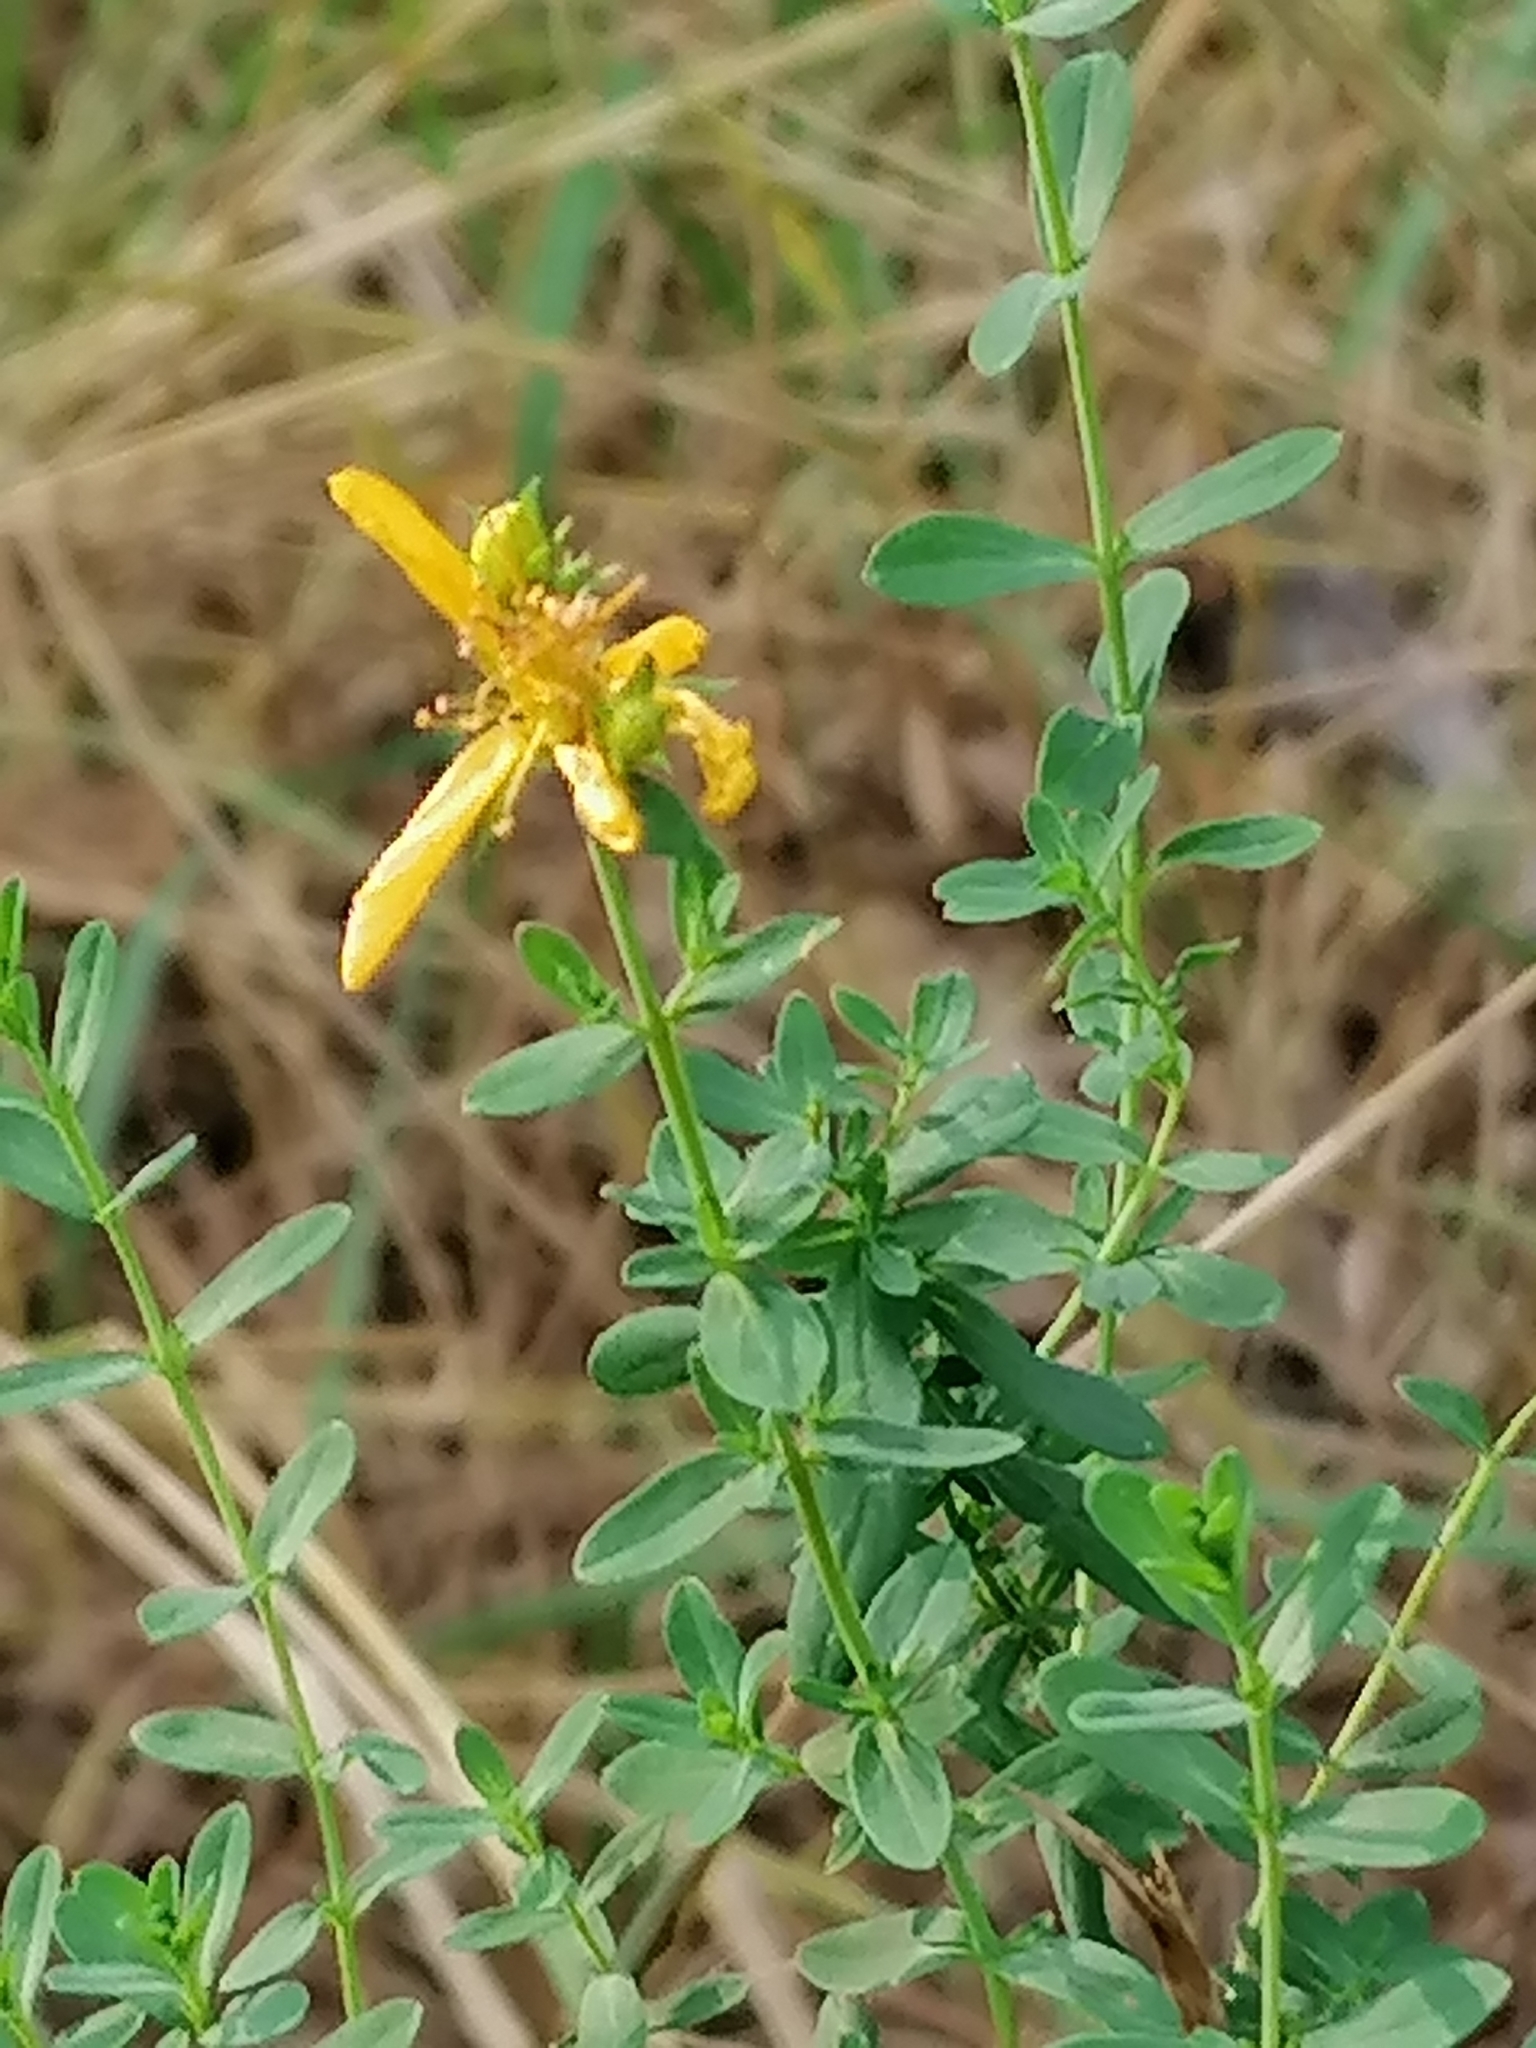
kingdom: Plantae
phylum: Tracheophyta
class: Magnoliopsida
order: Malpighiales
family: Hypericaceae
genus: Hypericum
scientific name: Hypericum perforatum
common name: Common st. johnswort
